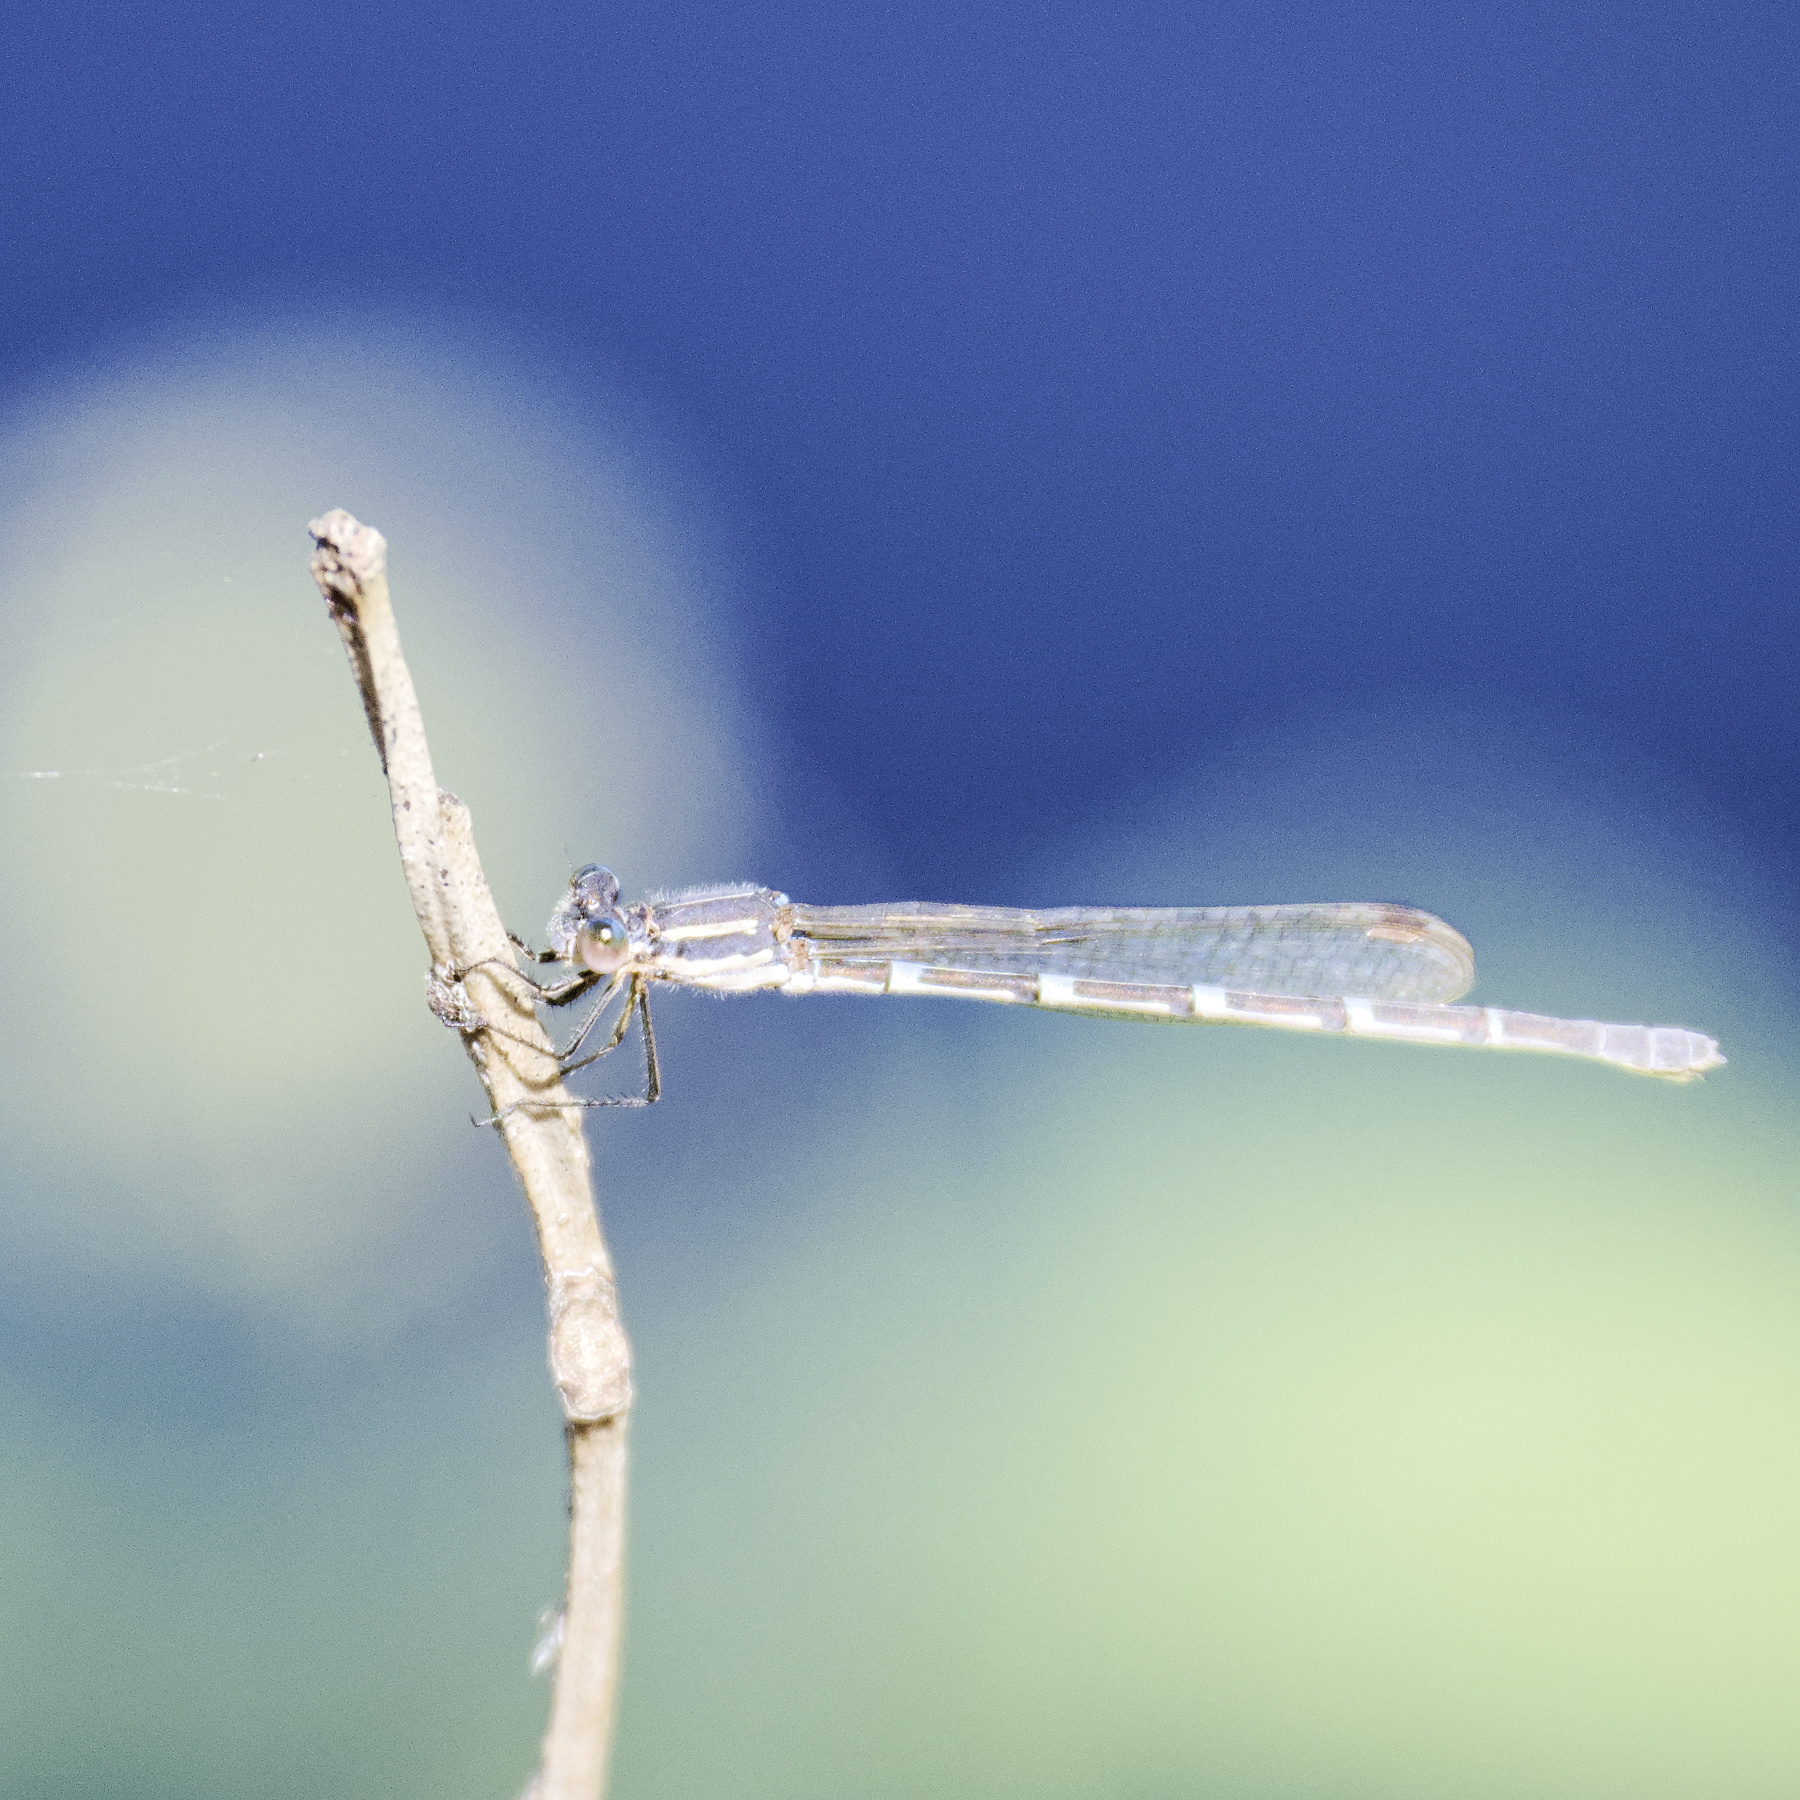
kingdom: Animalia
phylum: Arthropoda
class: Insecta
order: Odonata
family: Lestidae
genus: Austrolestes
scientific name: Austrolestes leda
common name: Wandering ringtail
